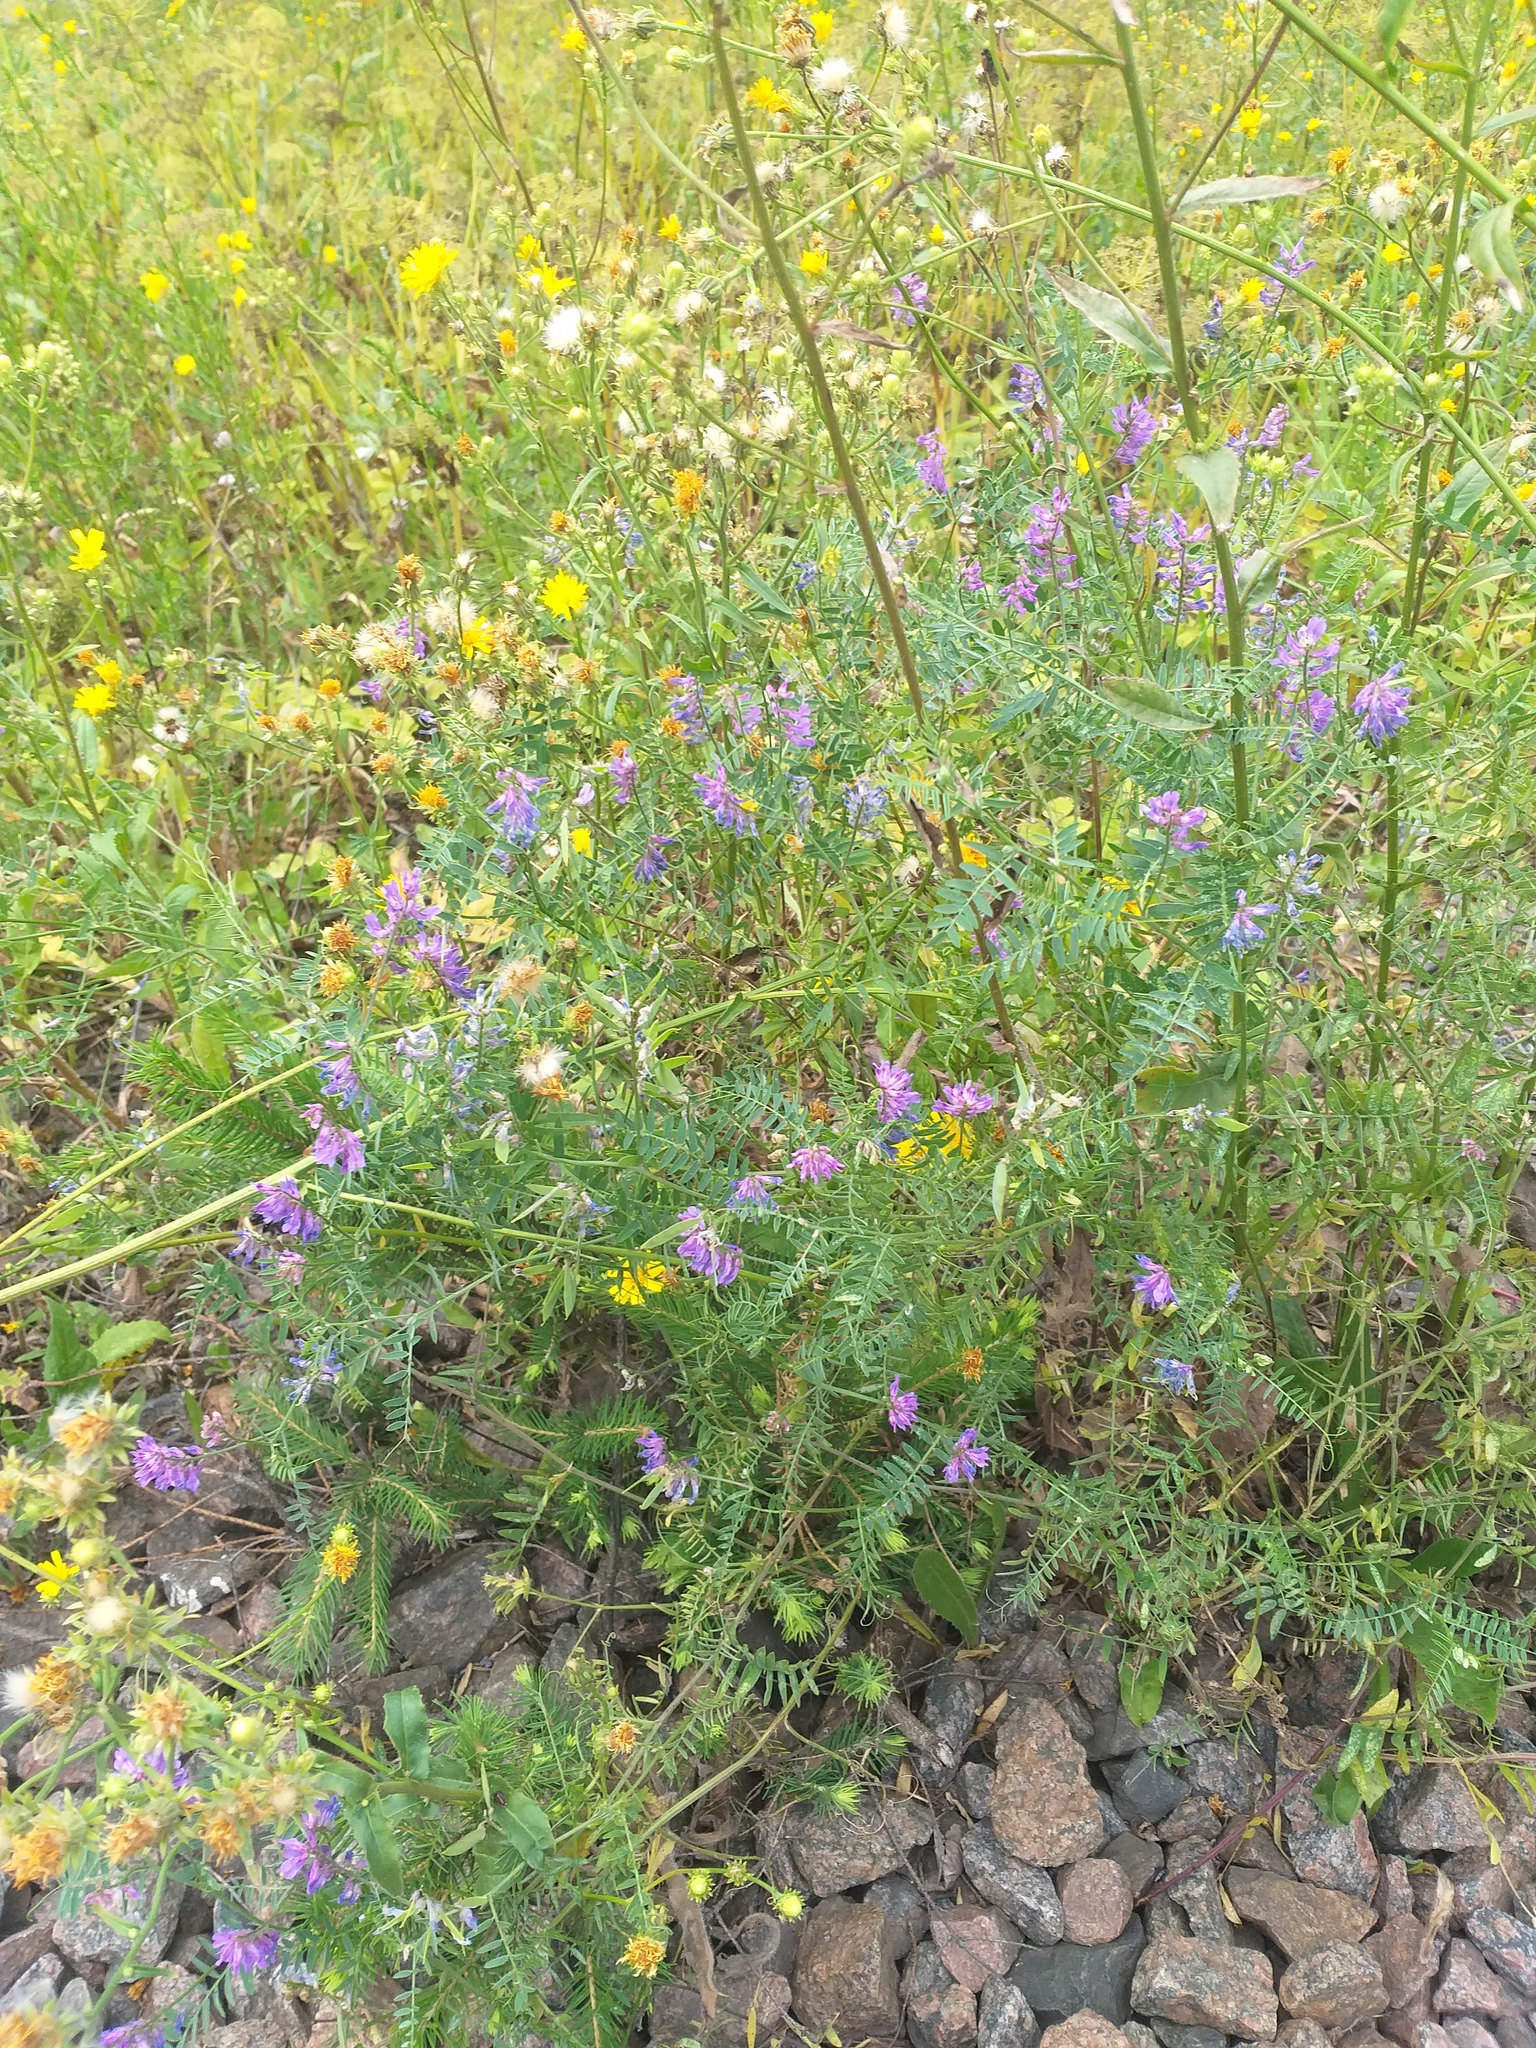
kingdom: Plantae
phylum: Tracheophyta
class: Magnoliopsida
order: Fabales
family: Fabaceae
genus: Vicia
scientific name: Vicia cracca
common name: Bird vetch
